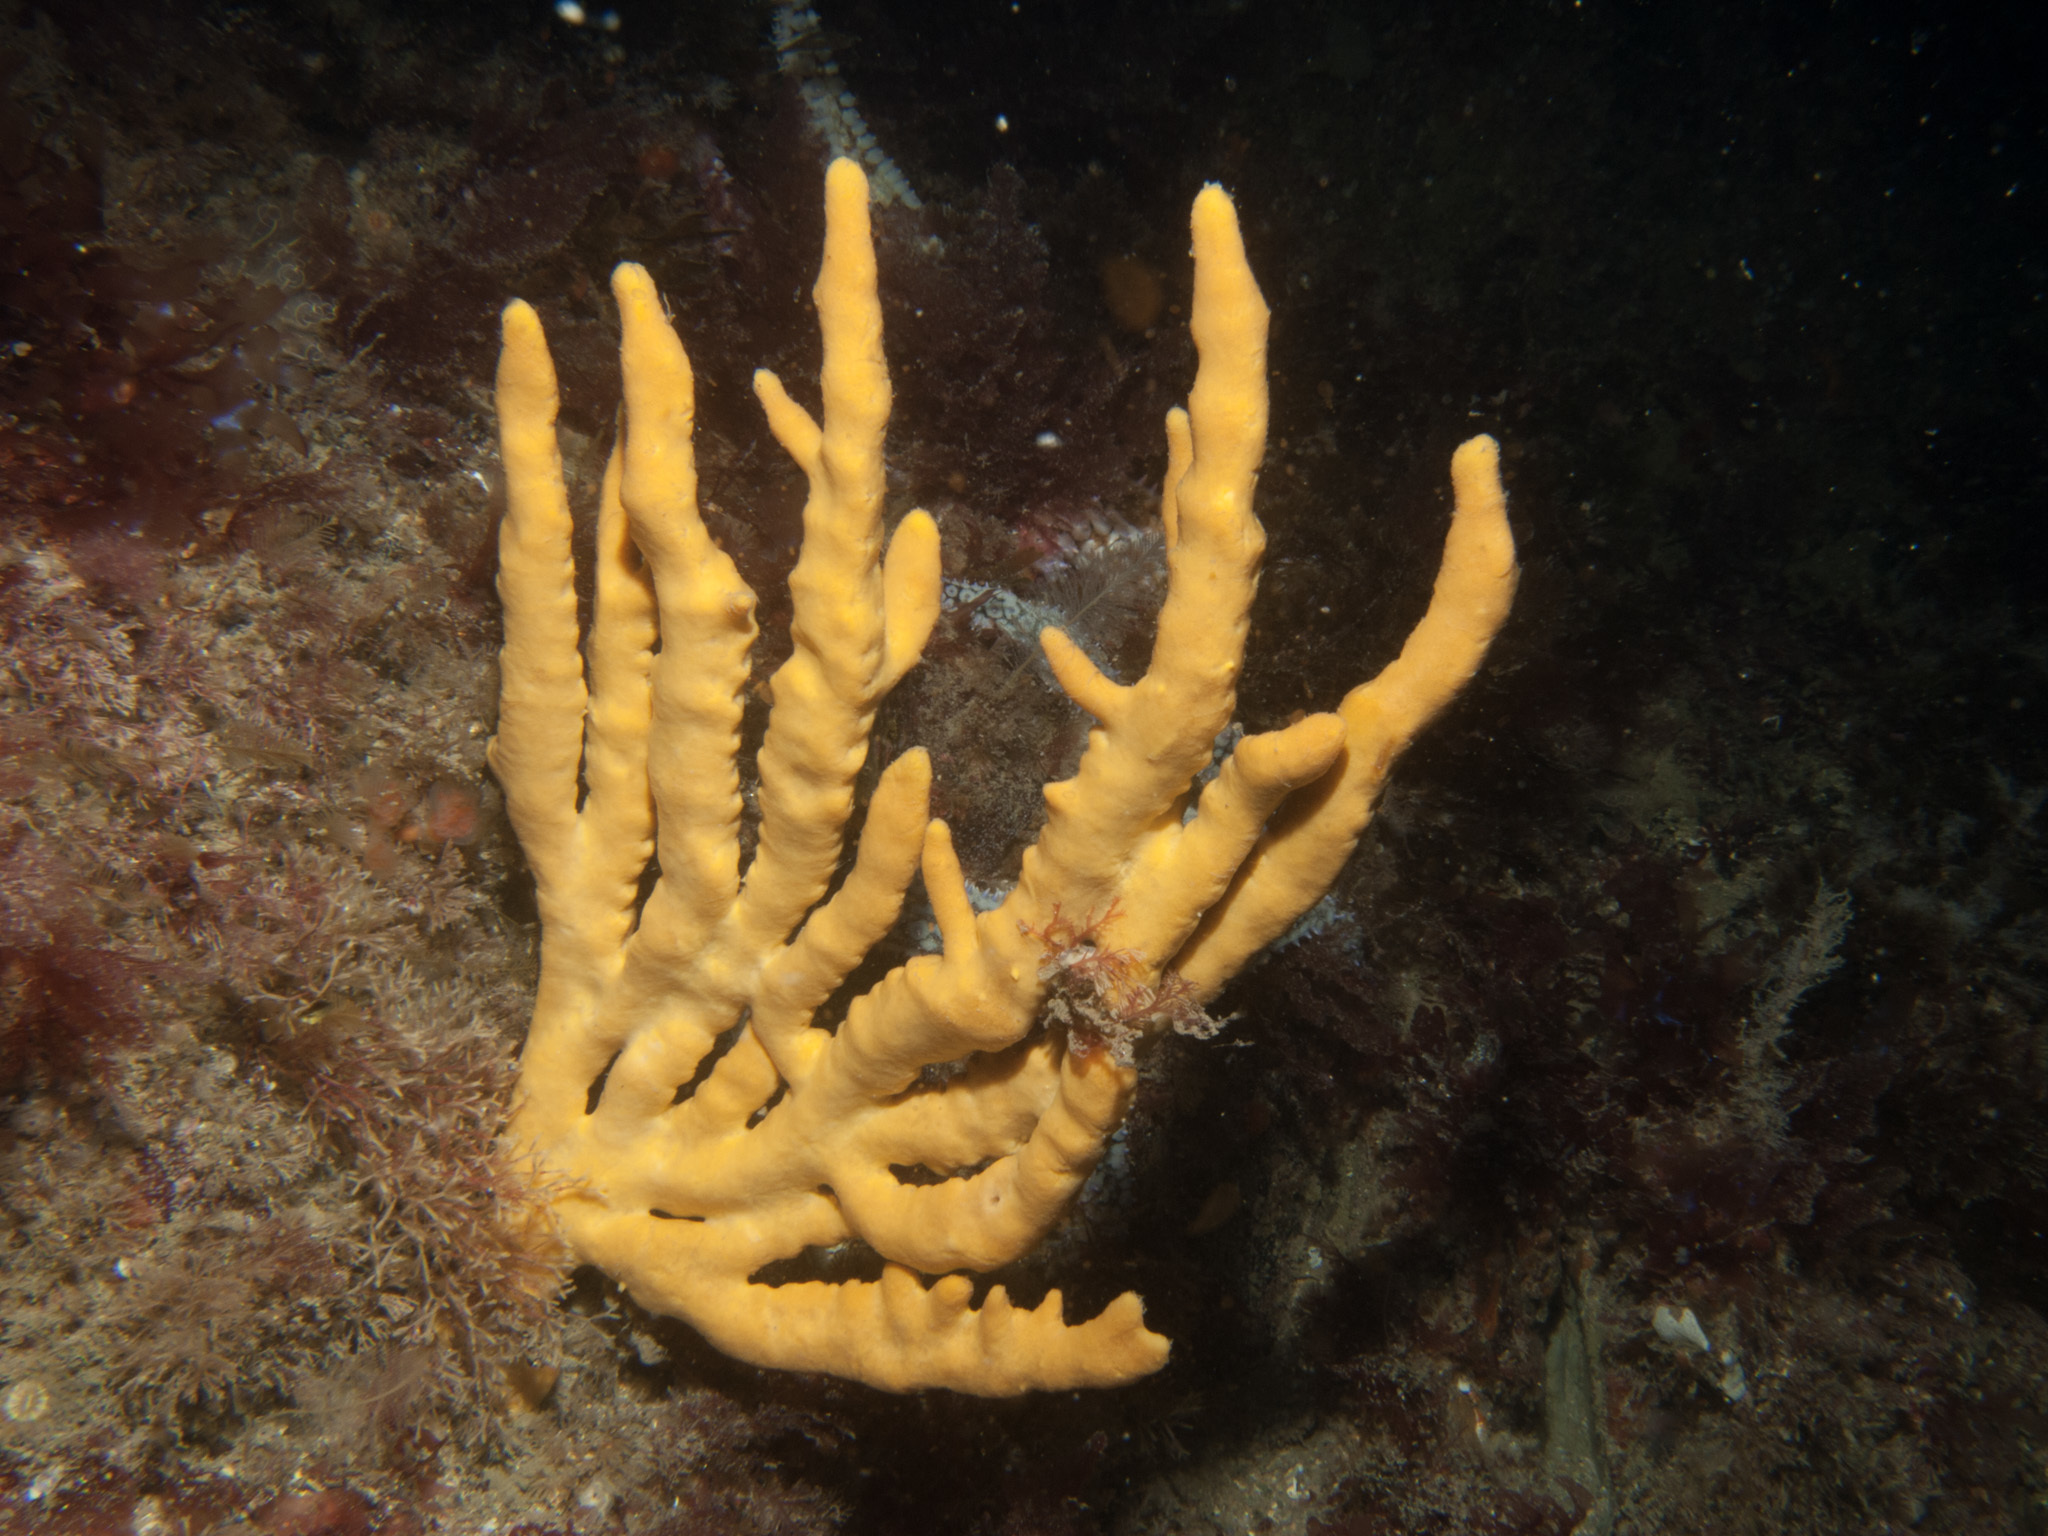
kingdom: Animalia
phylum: Porifera
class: Demospongiae
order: Axinellida
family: Axinellidae
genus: Axinella
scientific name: Axinella dissimilis
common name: Branching sponge
